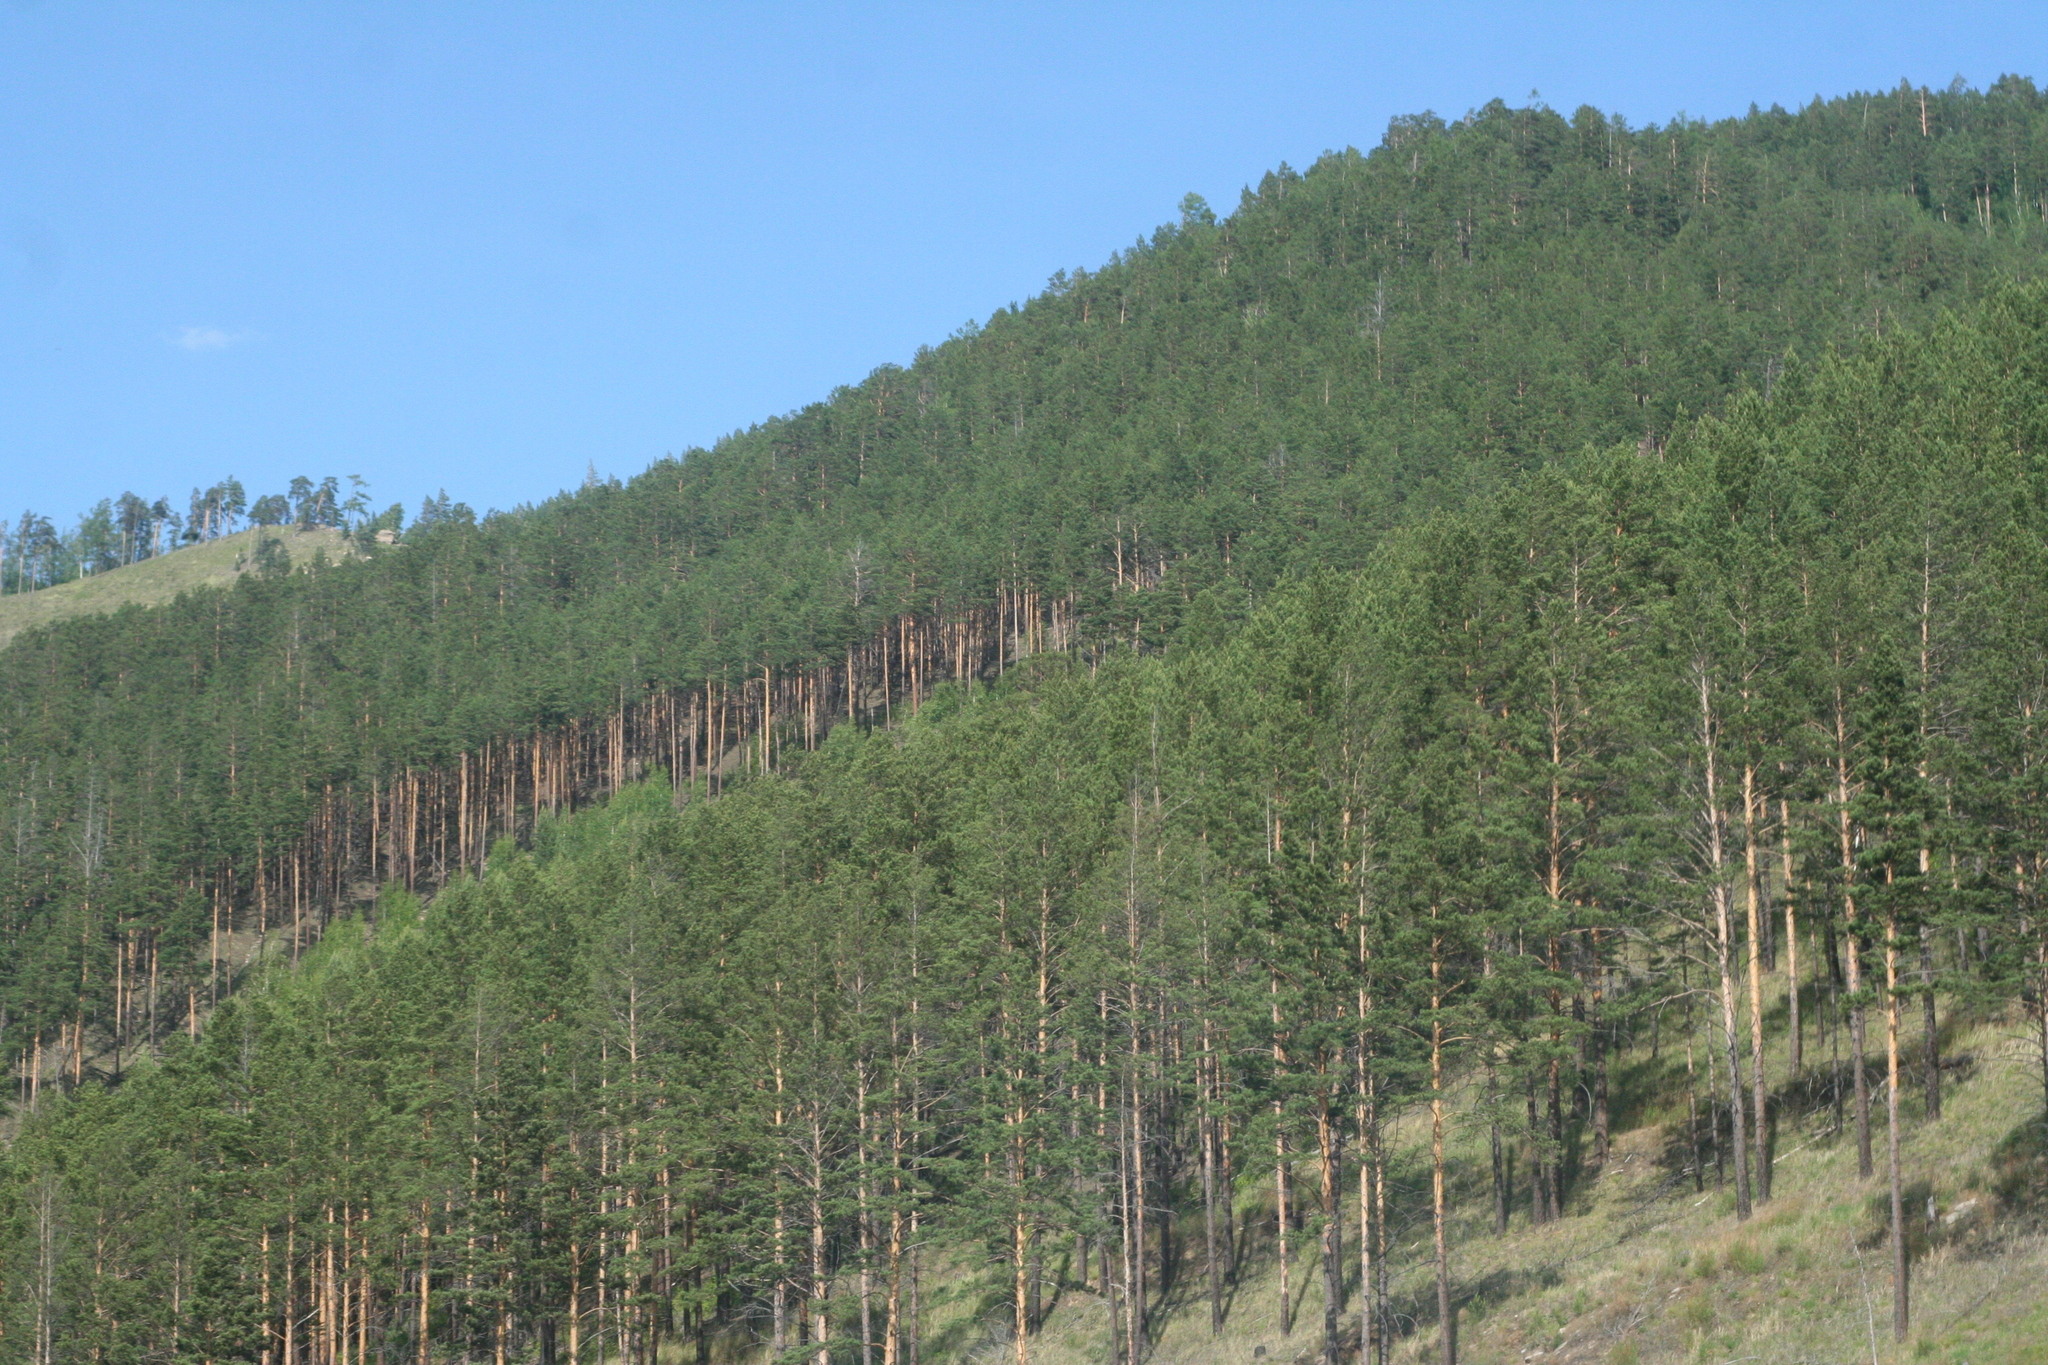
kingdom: Plantae
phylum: Tracheophyta
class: Pinopsida
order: Pinales
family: Pinaceae
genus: Pinus
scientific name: Pinus sylvestris
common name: Scots pine
